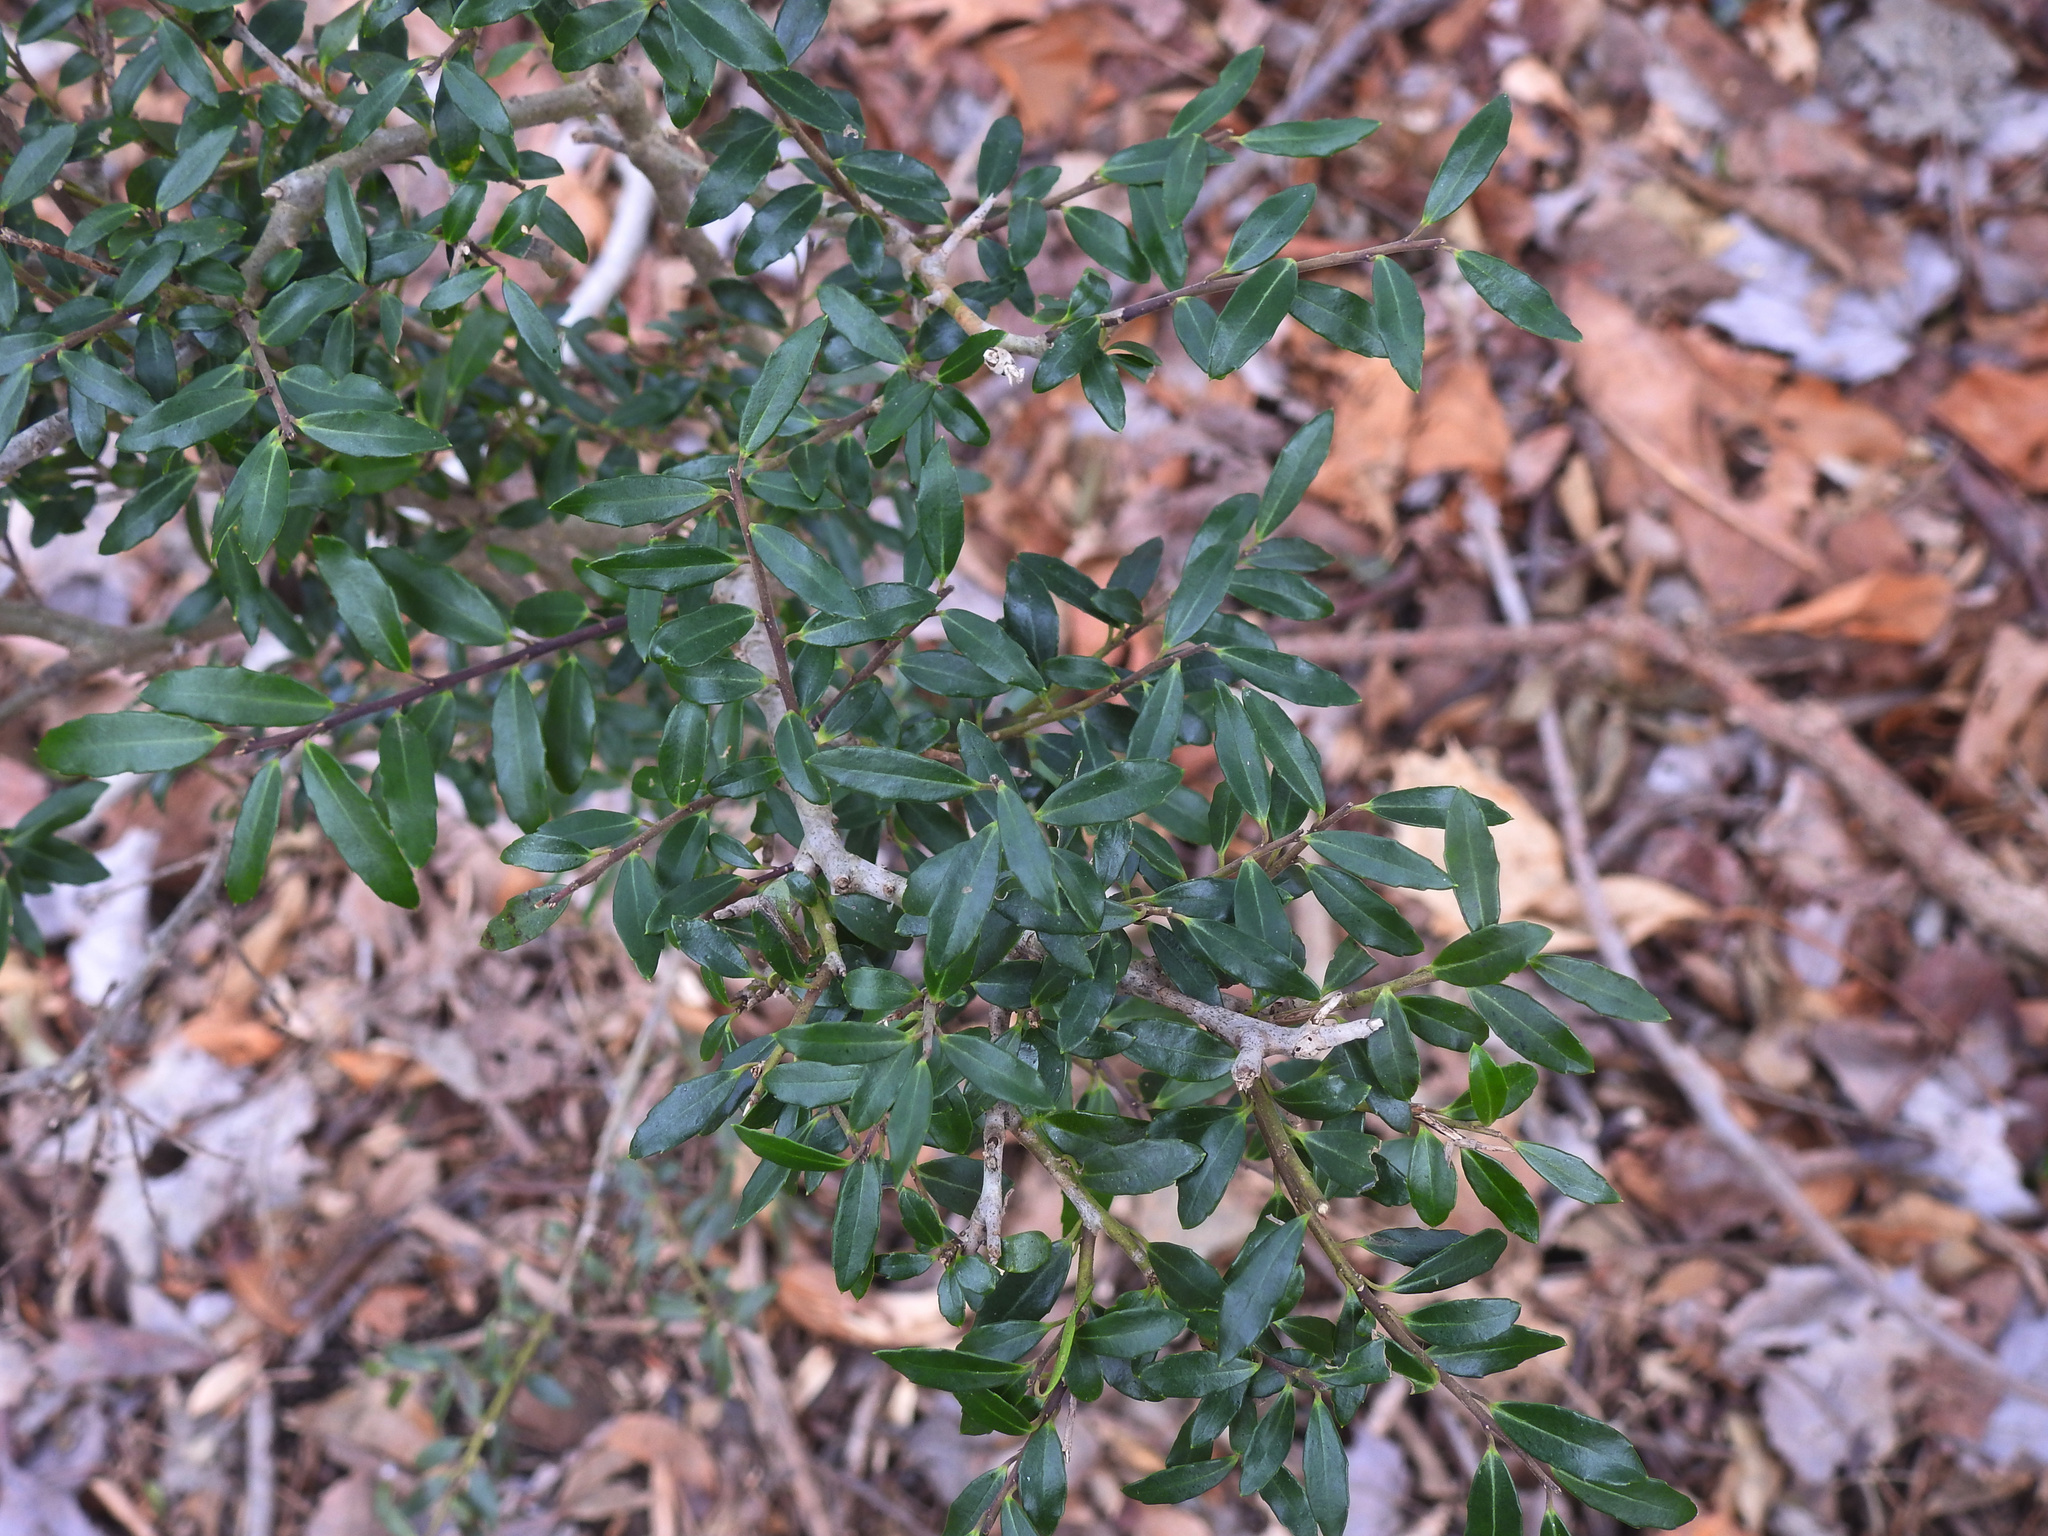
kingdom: Plantae
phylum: Tracheophyta
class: Magnoliopsida
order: Aquifoliales
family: Aquifoliaceae
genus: Ilex
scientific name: Ilex crenata
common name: Japanese holly
